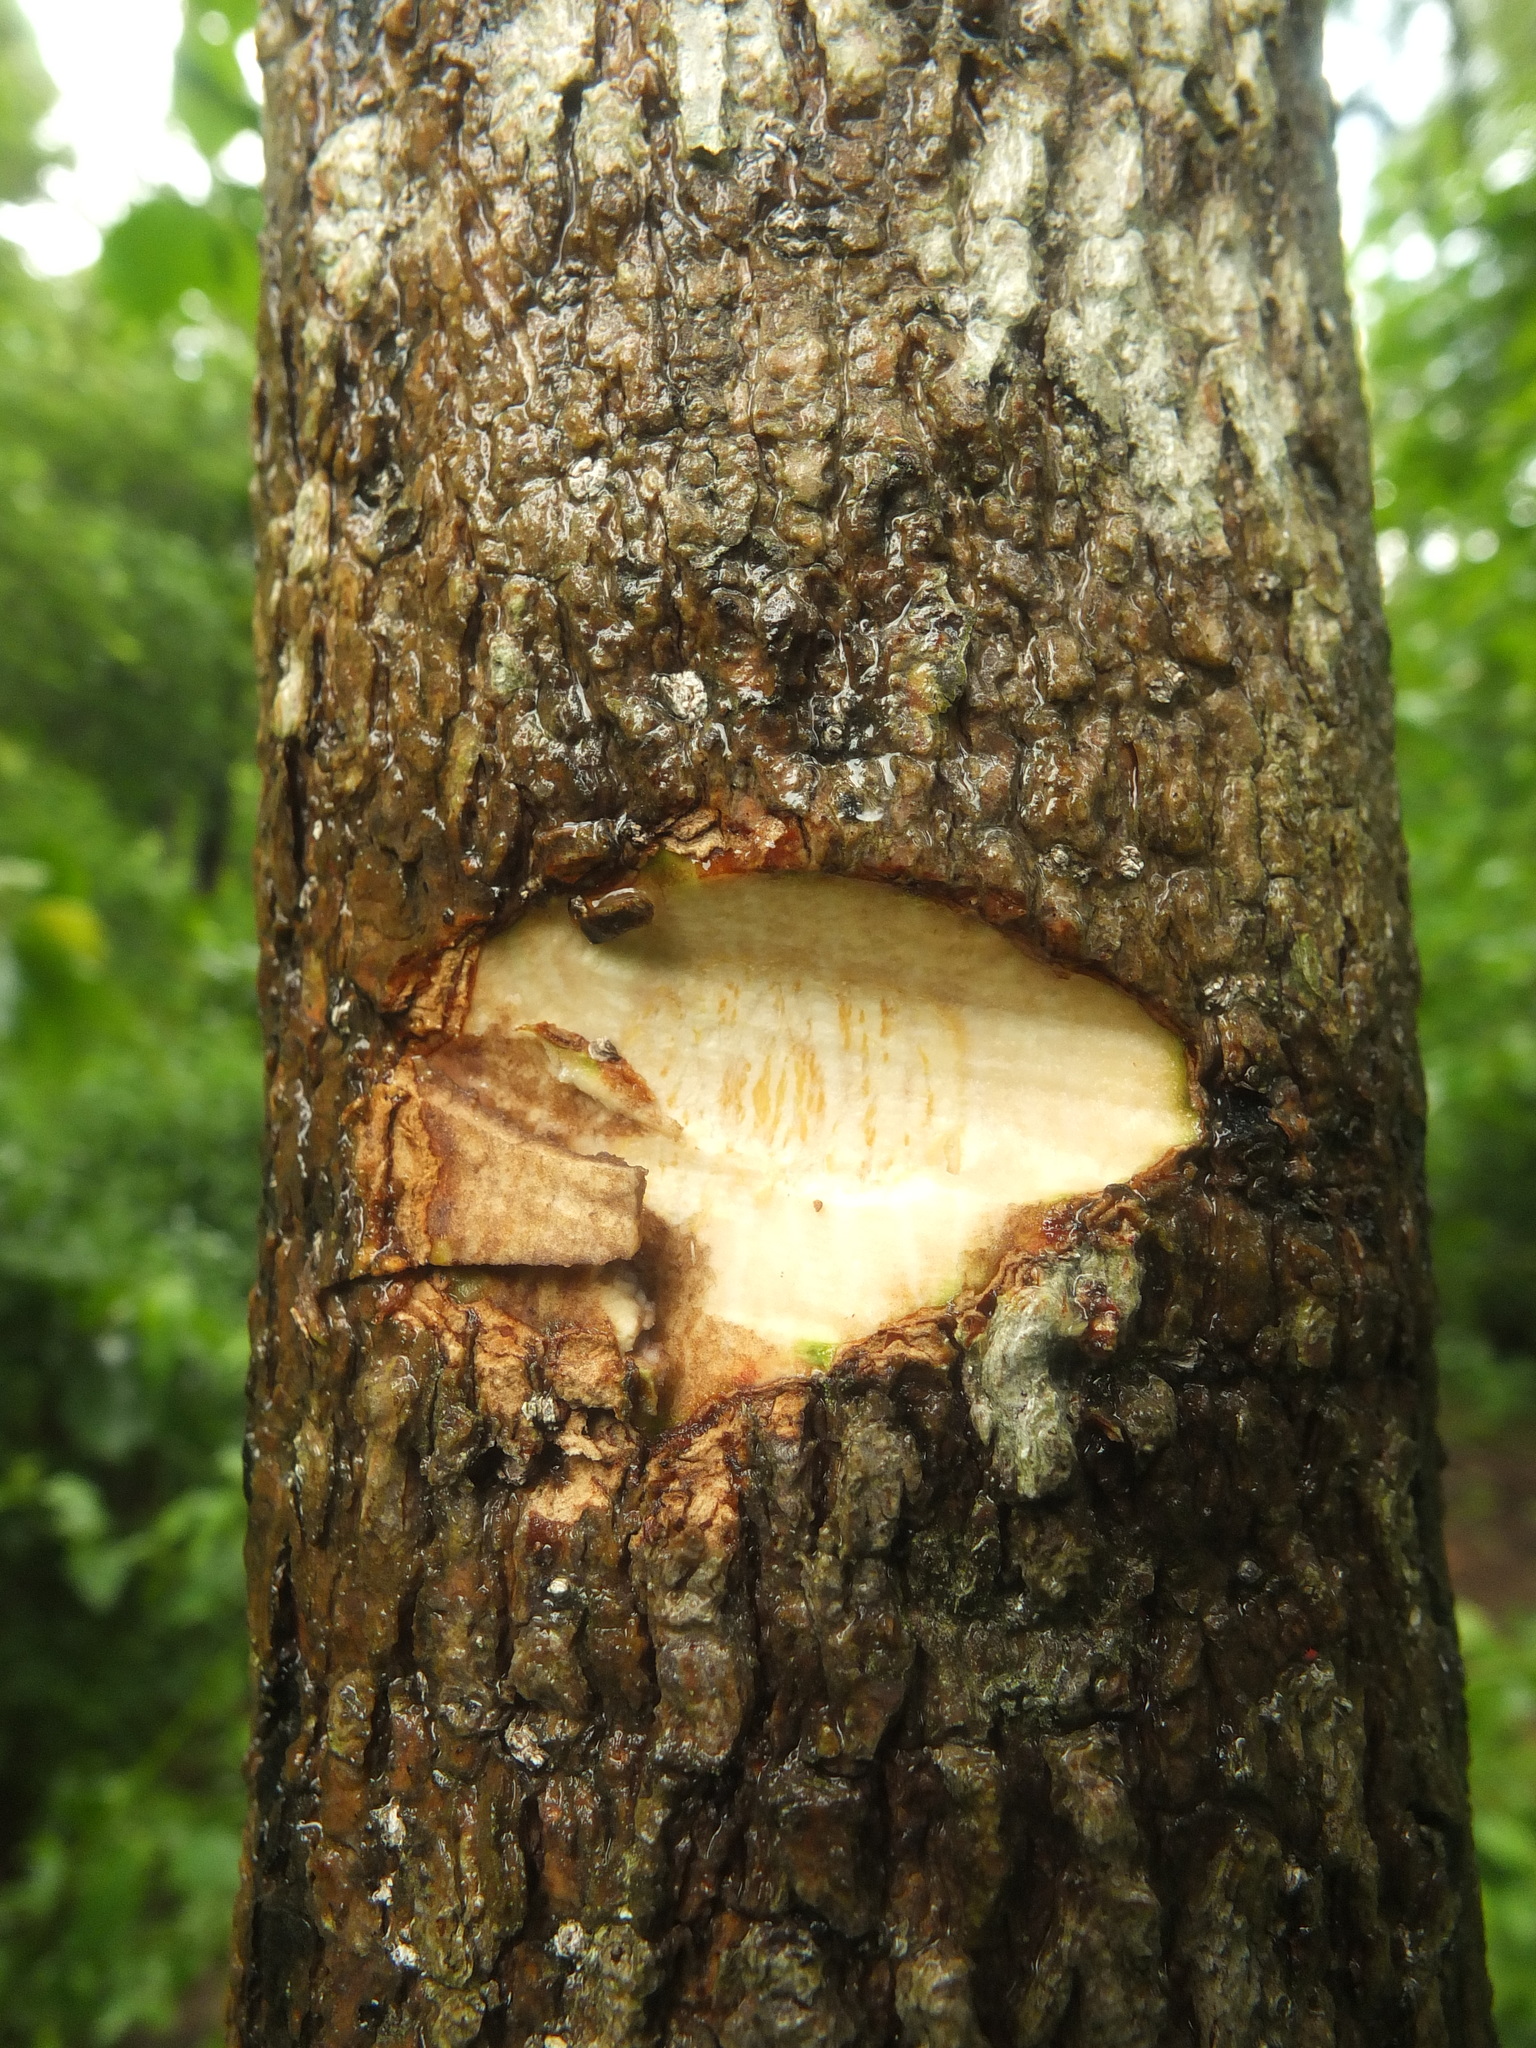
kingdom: Plantae
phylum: Tracheophyta
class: Magnoliopsida
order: Laurales
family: Lauraceae
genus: Litsea
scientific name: Litsea glutinosa
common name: Indian-laurel
